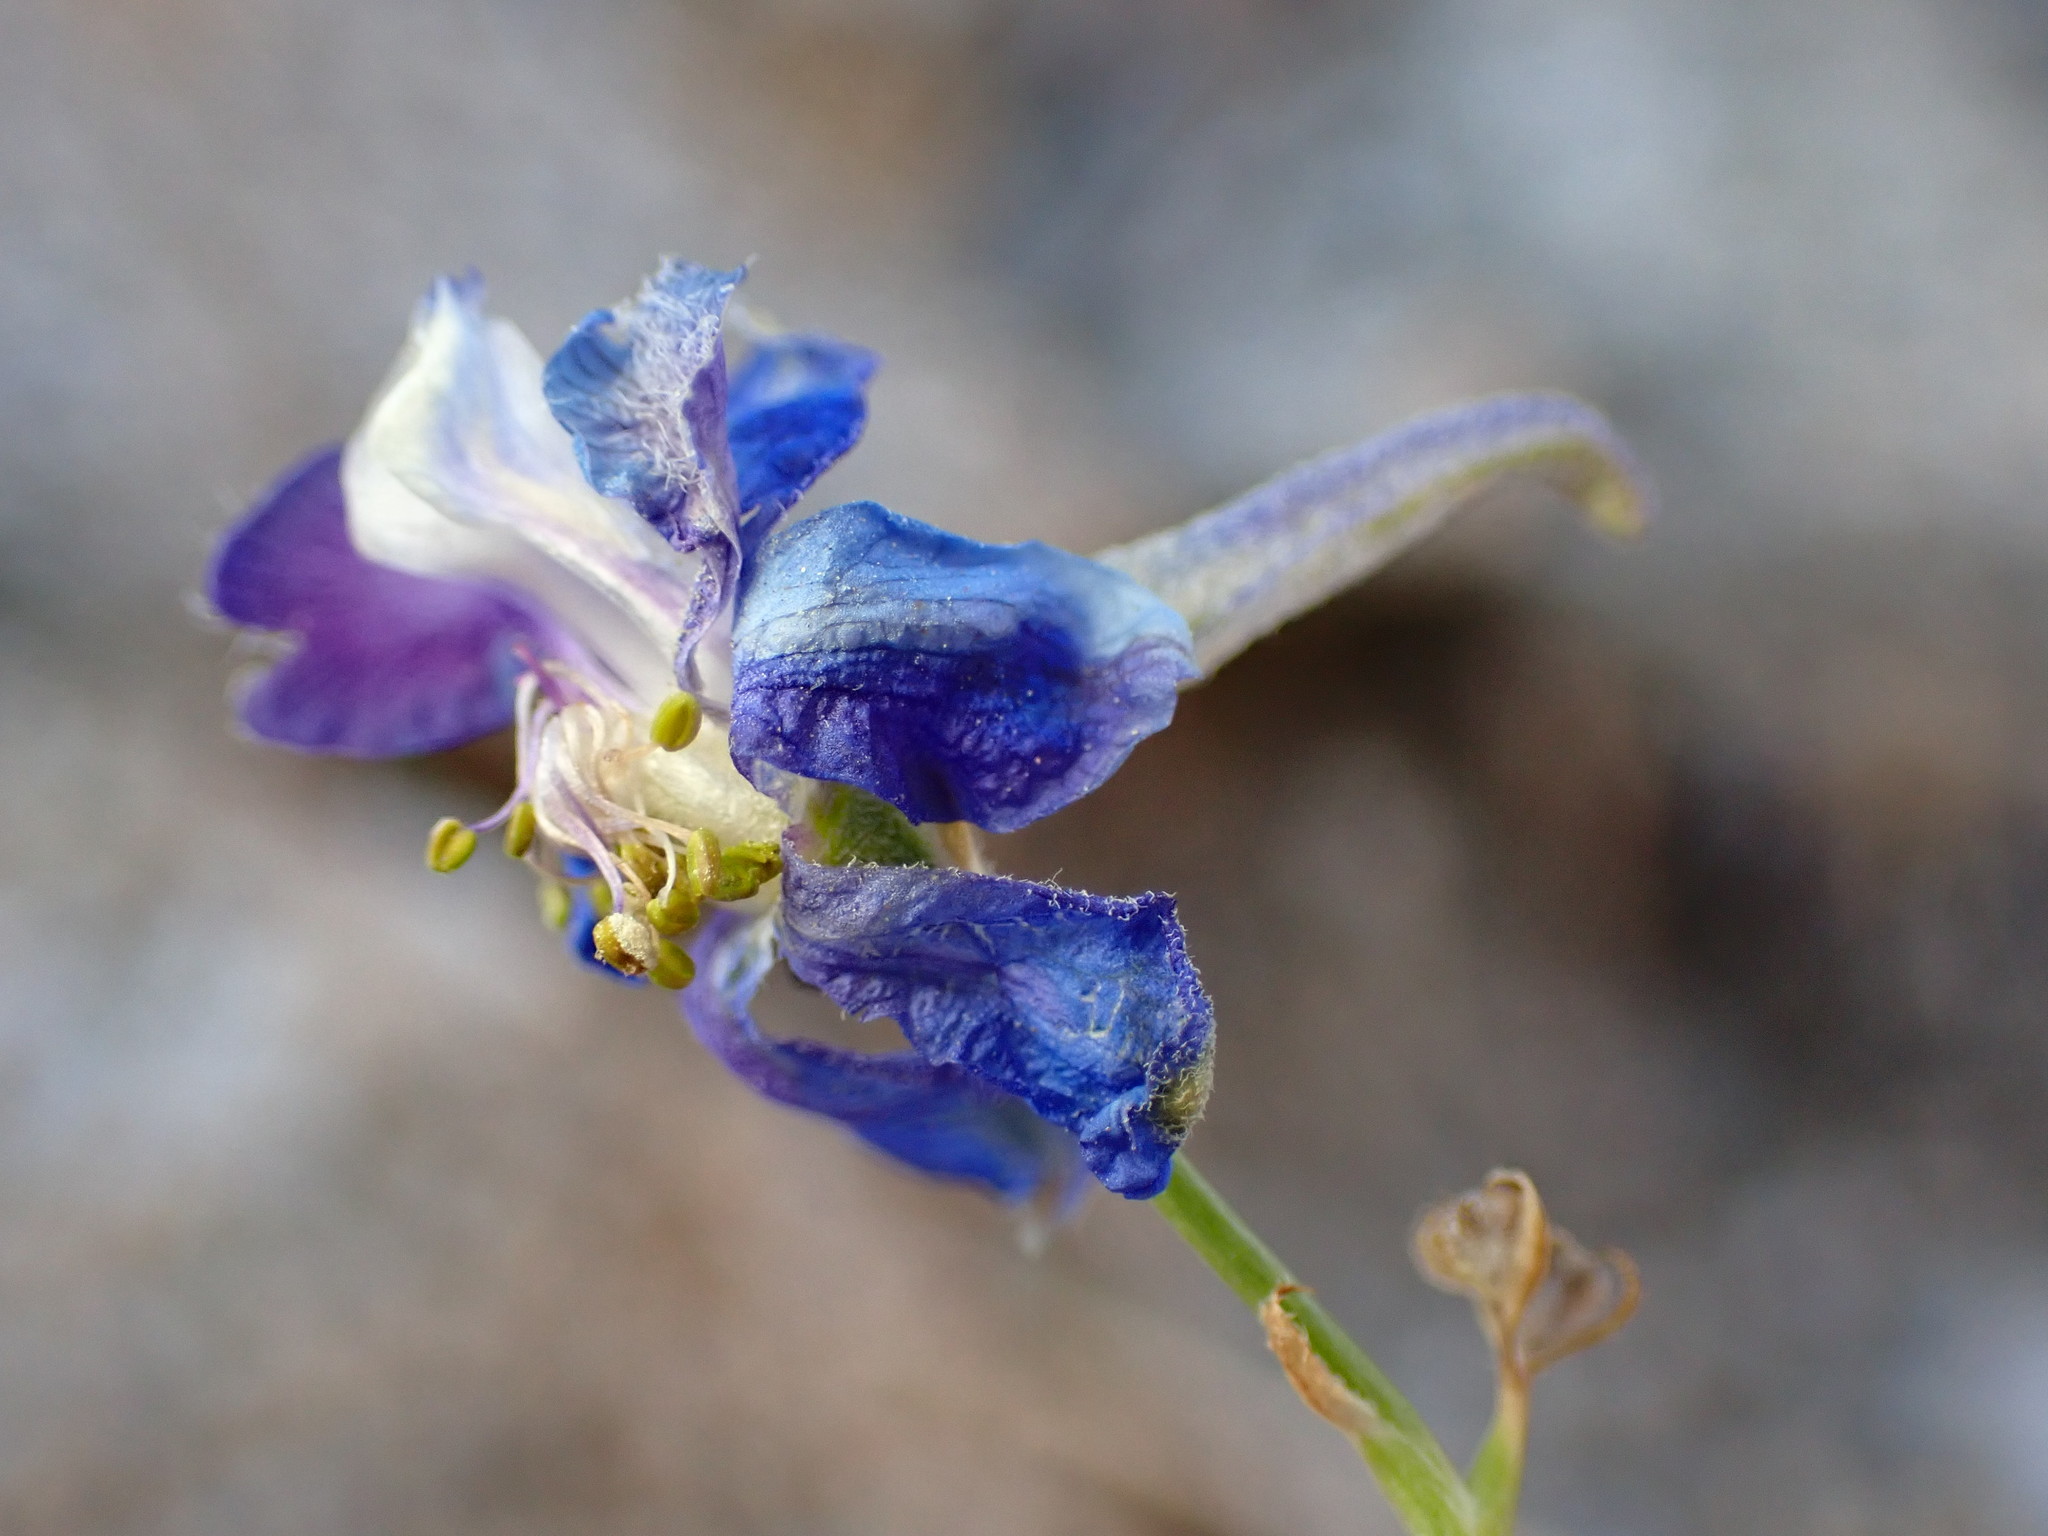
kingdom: Plantae
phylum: Tracheophyta
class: Magnoliopsida
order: Ranunculales
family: Ranunculaceae
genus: Delphinium
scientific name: Delphinium parishii
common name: Apache larkspur
